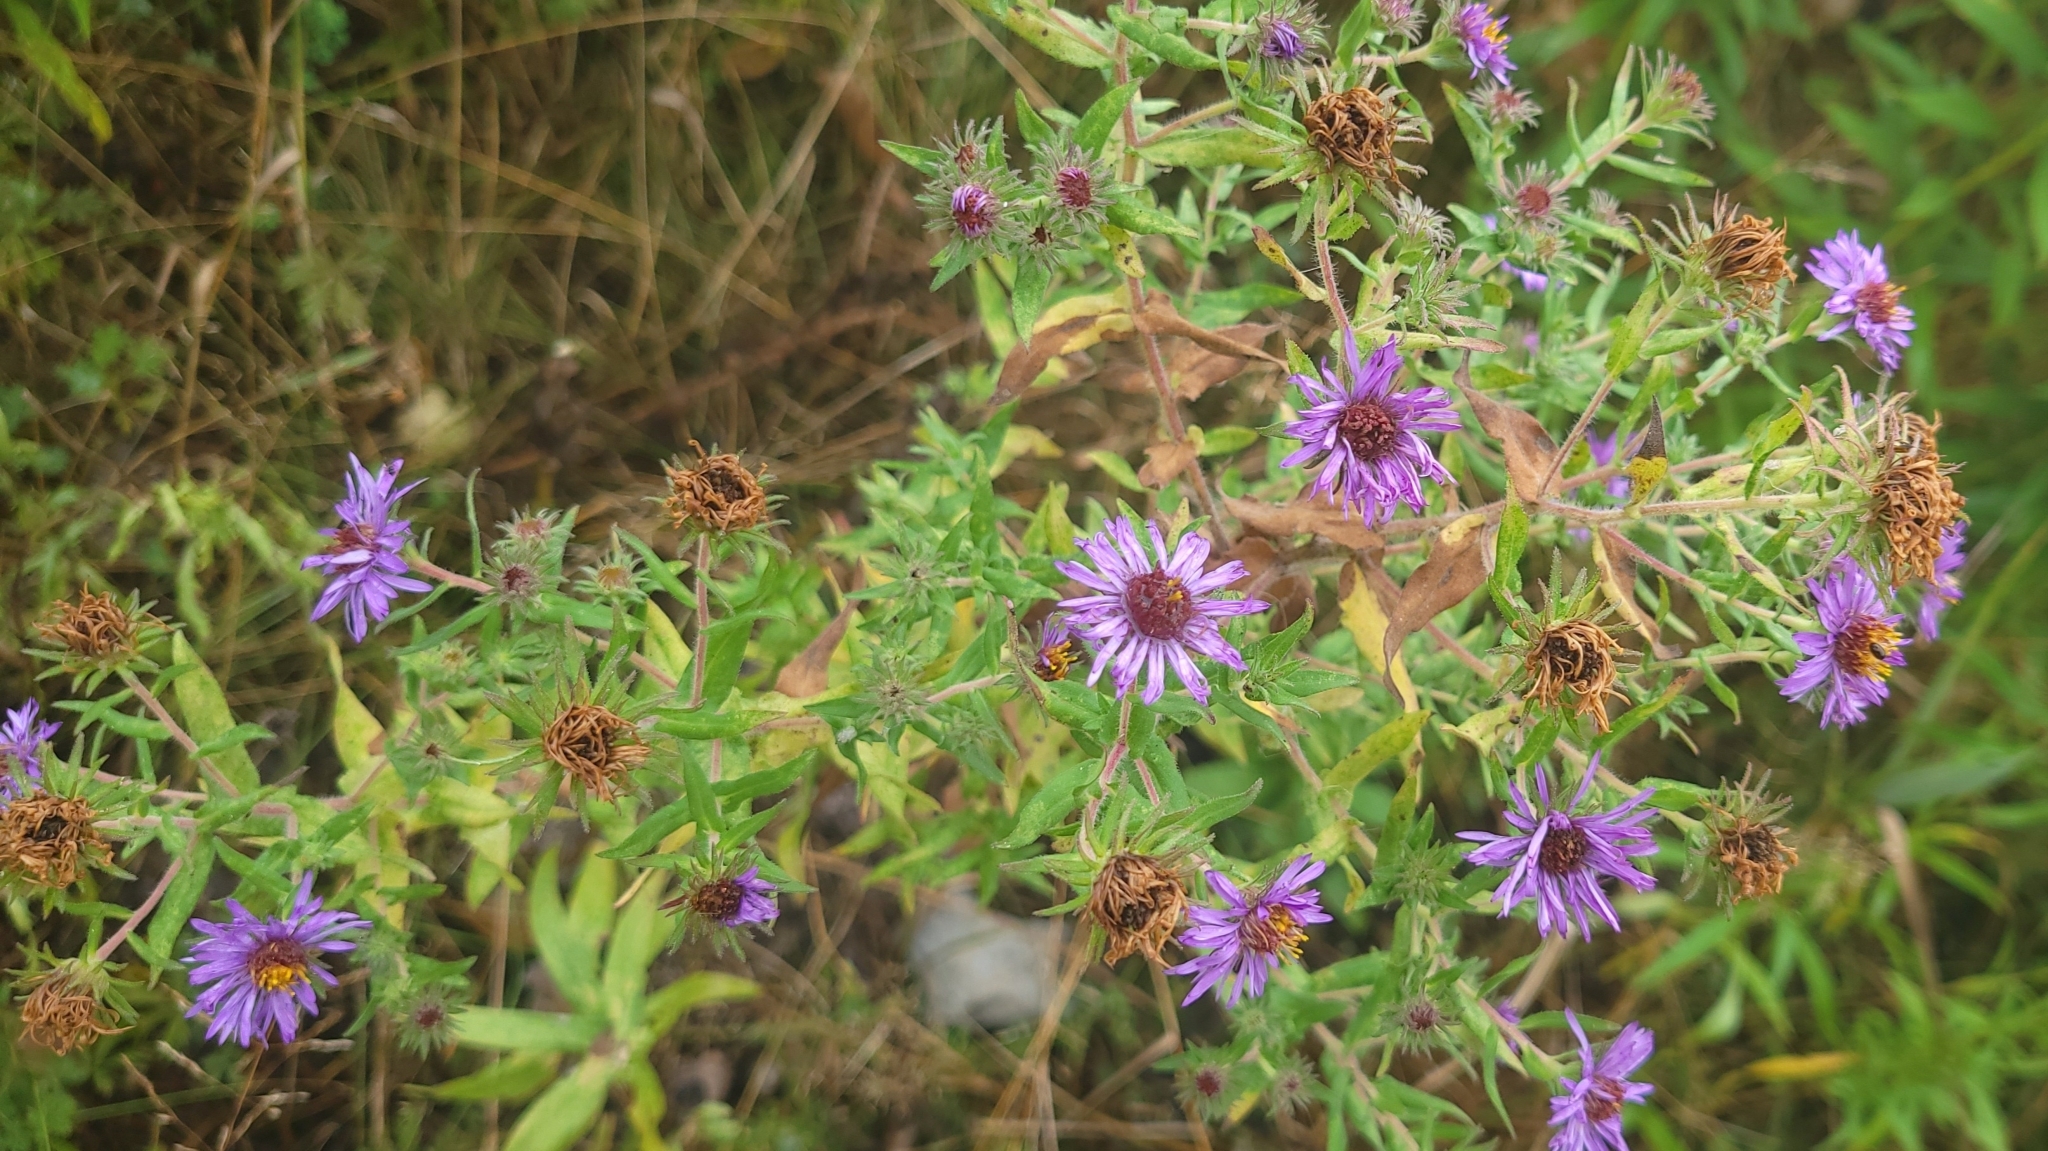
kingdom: Plantae
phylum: Tracheophyta
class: Magnoliopsida
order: Asterales
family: Asteraceae
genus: Symphyotrichum
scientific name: Symphyotrichum novae-angliae
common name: Michaelmas daisy
